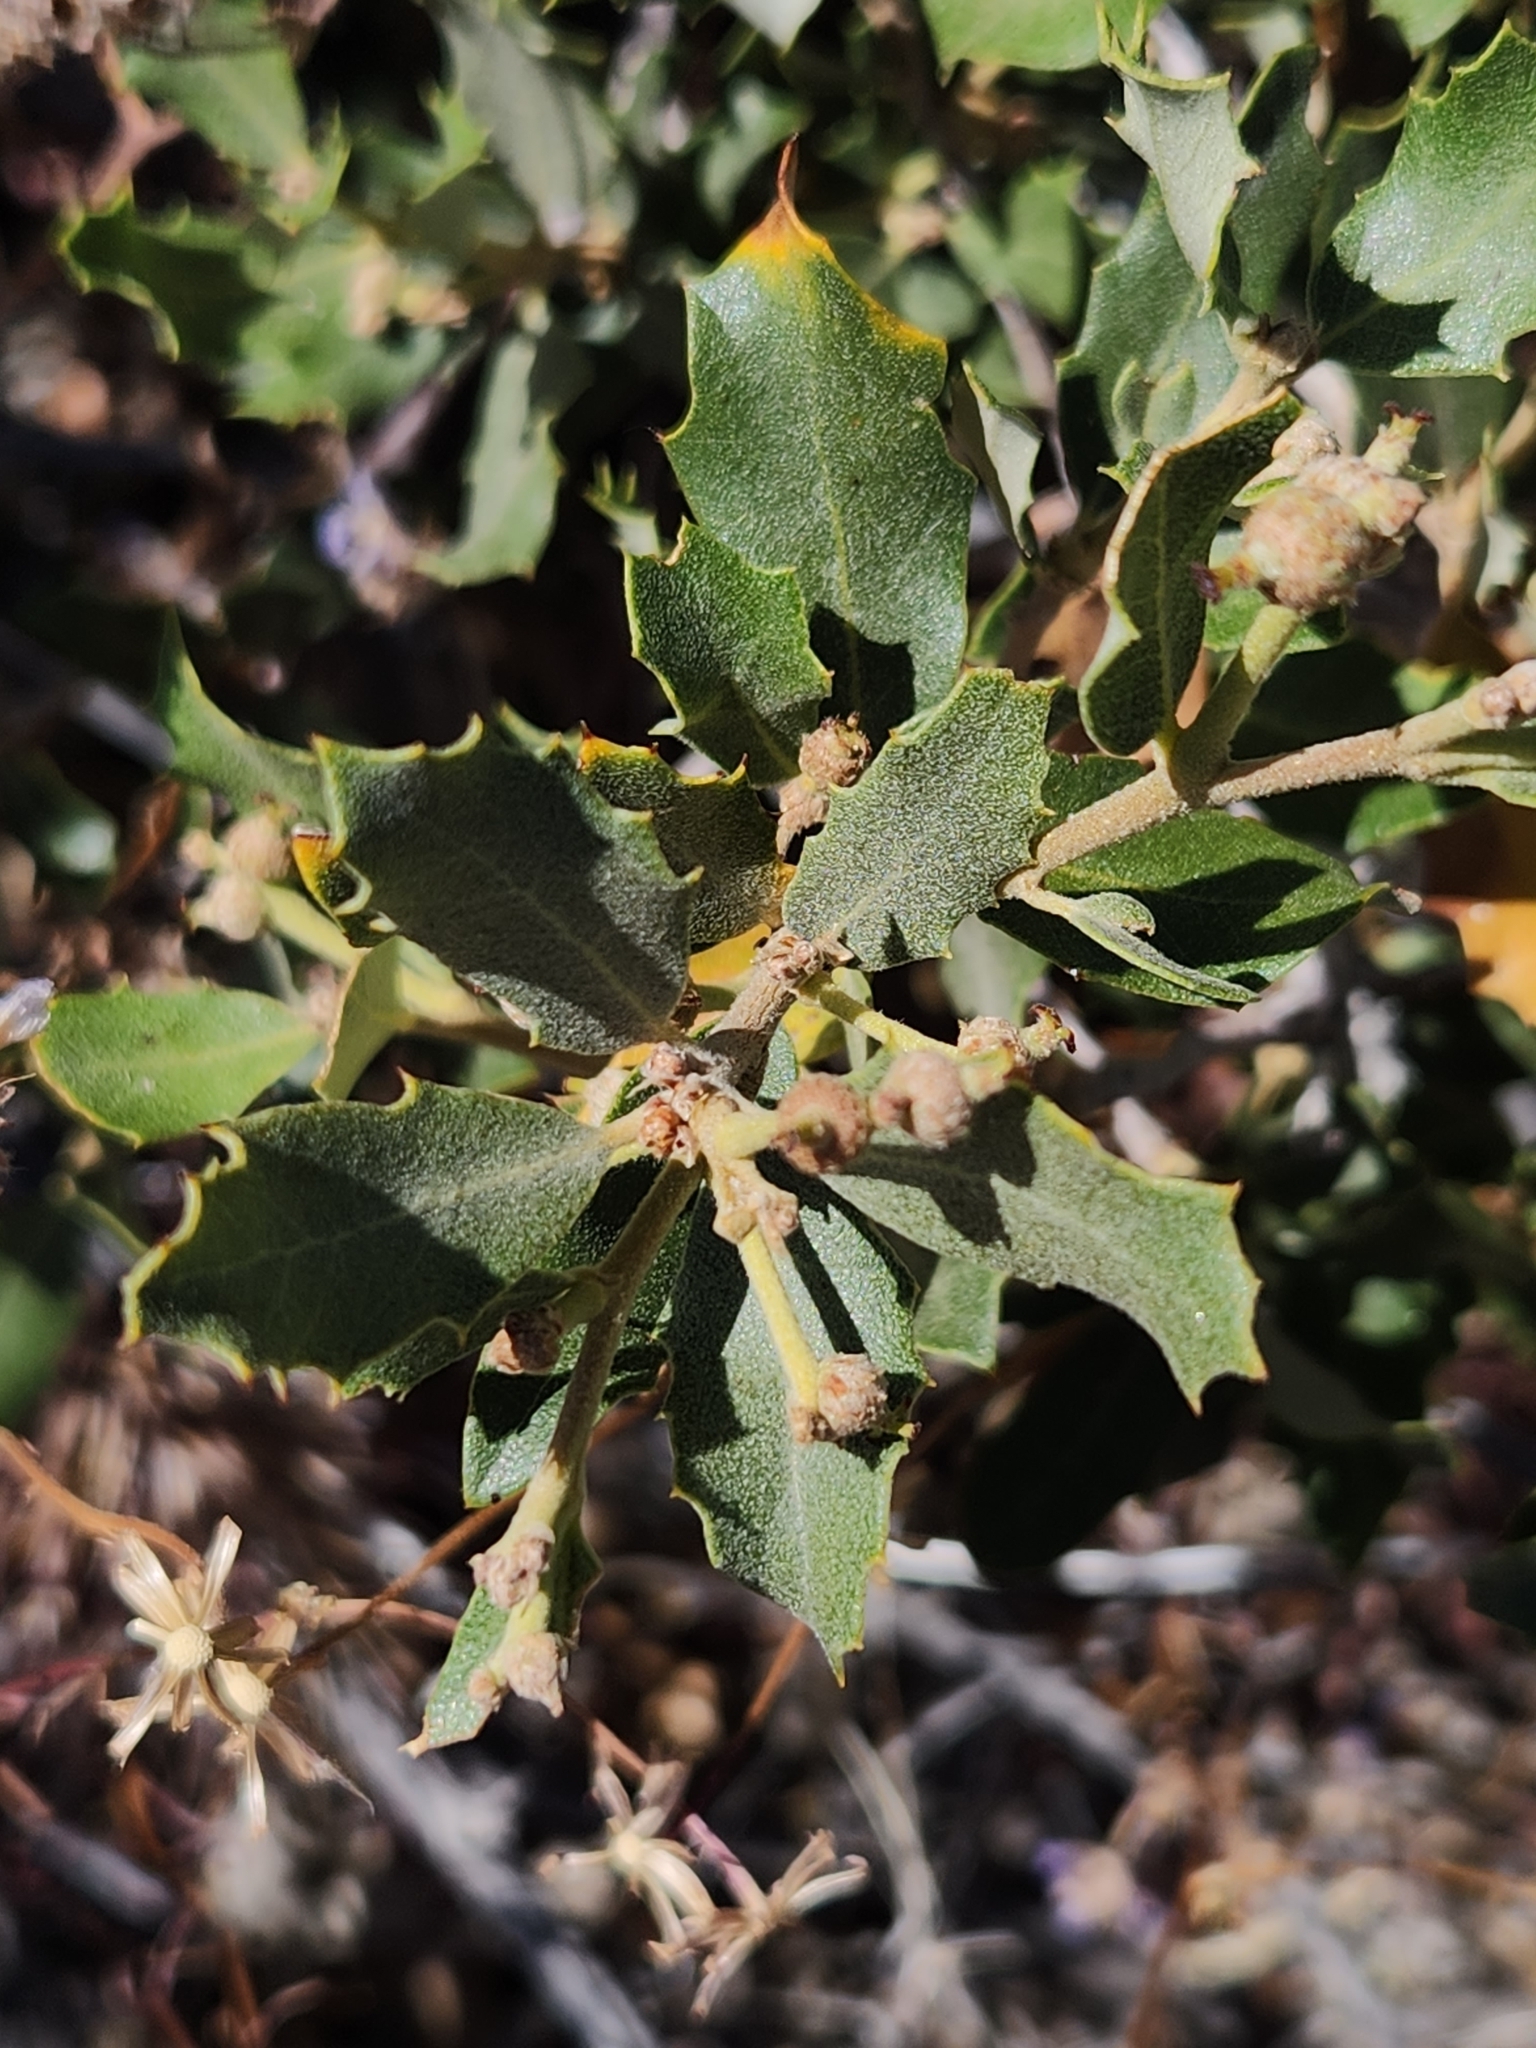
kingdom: Plantae
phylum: Tracheophyta
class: Magnoliopsida
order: Fagales
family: Fagaceae
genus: Quercus
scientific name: Quercus cornelius-mulleri
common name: Muller oak
